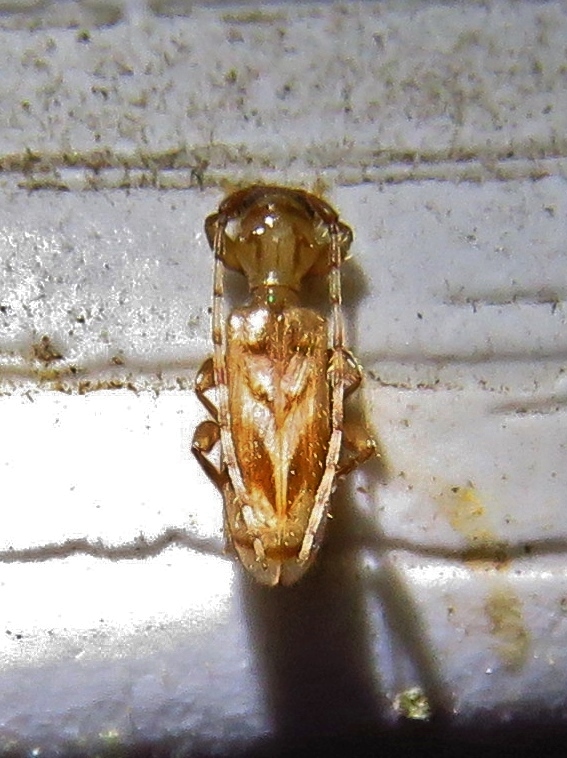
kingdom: Animalia
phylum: Arthropoda
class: Insecta
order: Coleoptera
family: Cerambycidae
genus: Obrium
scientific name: Obrium maculatum
